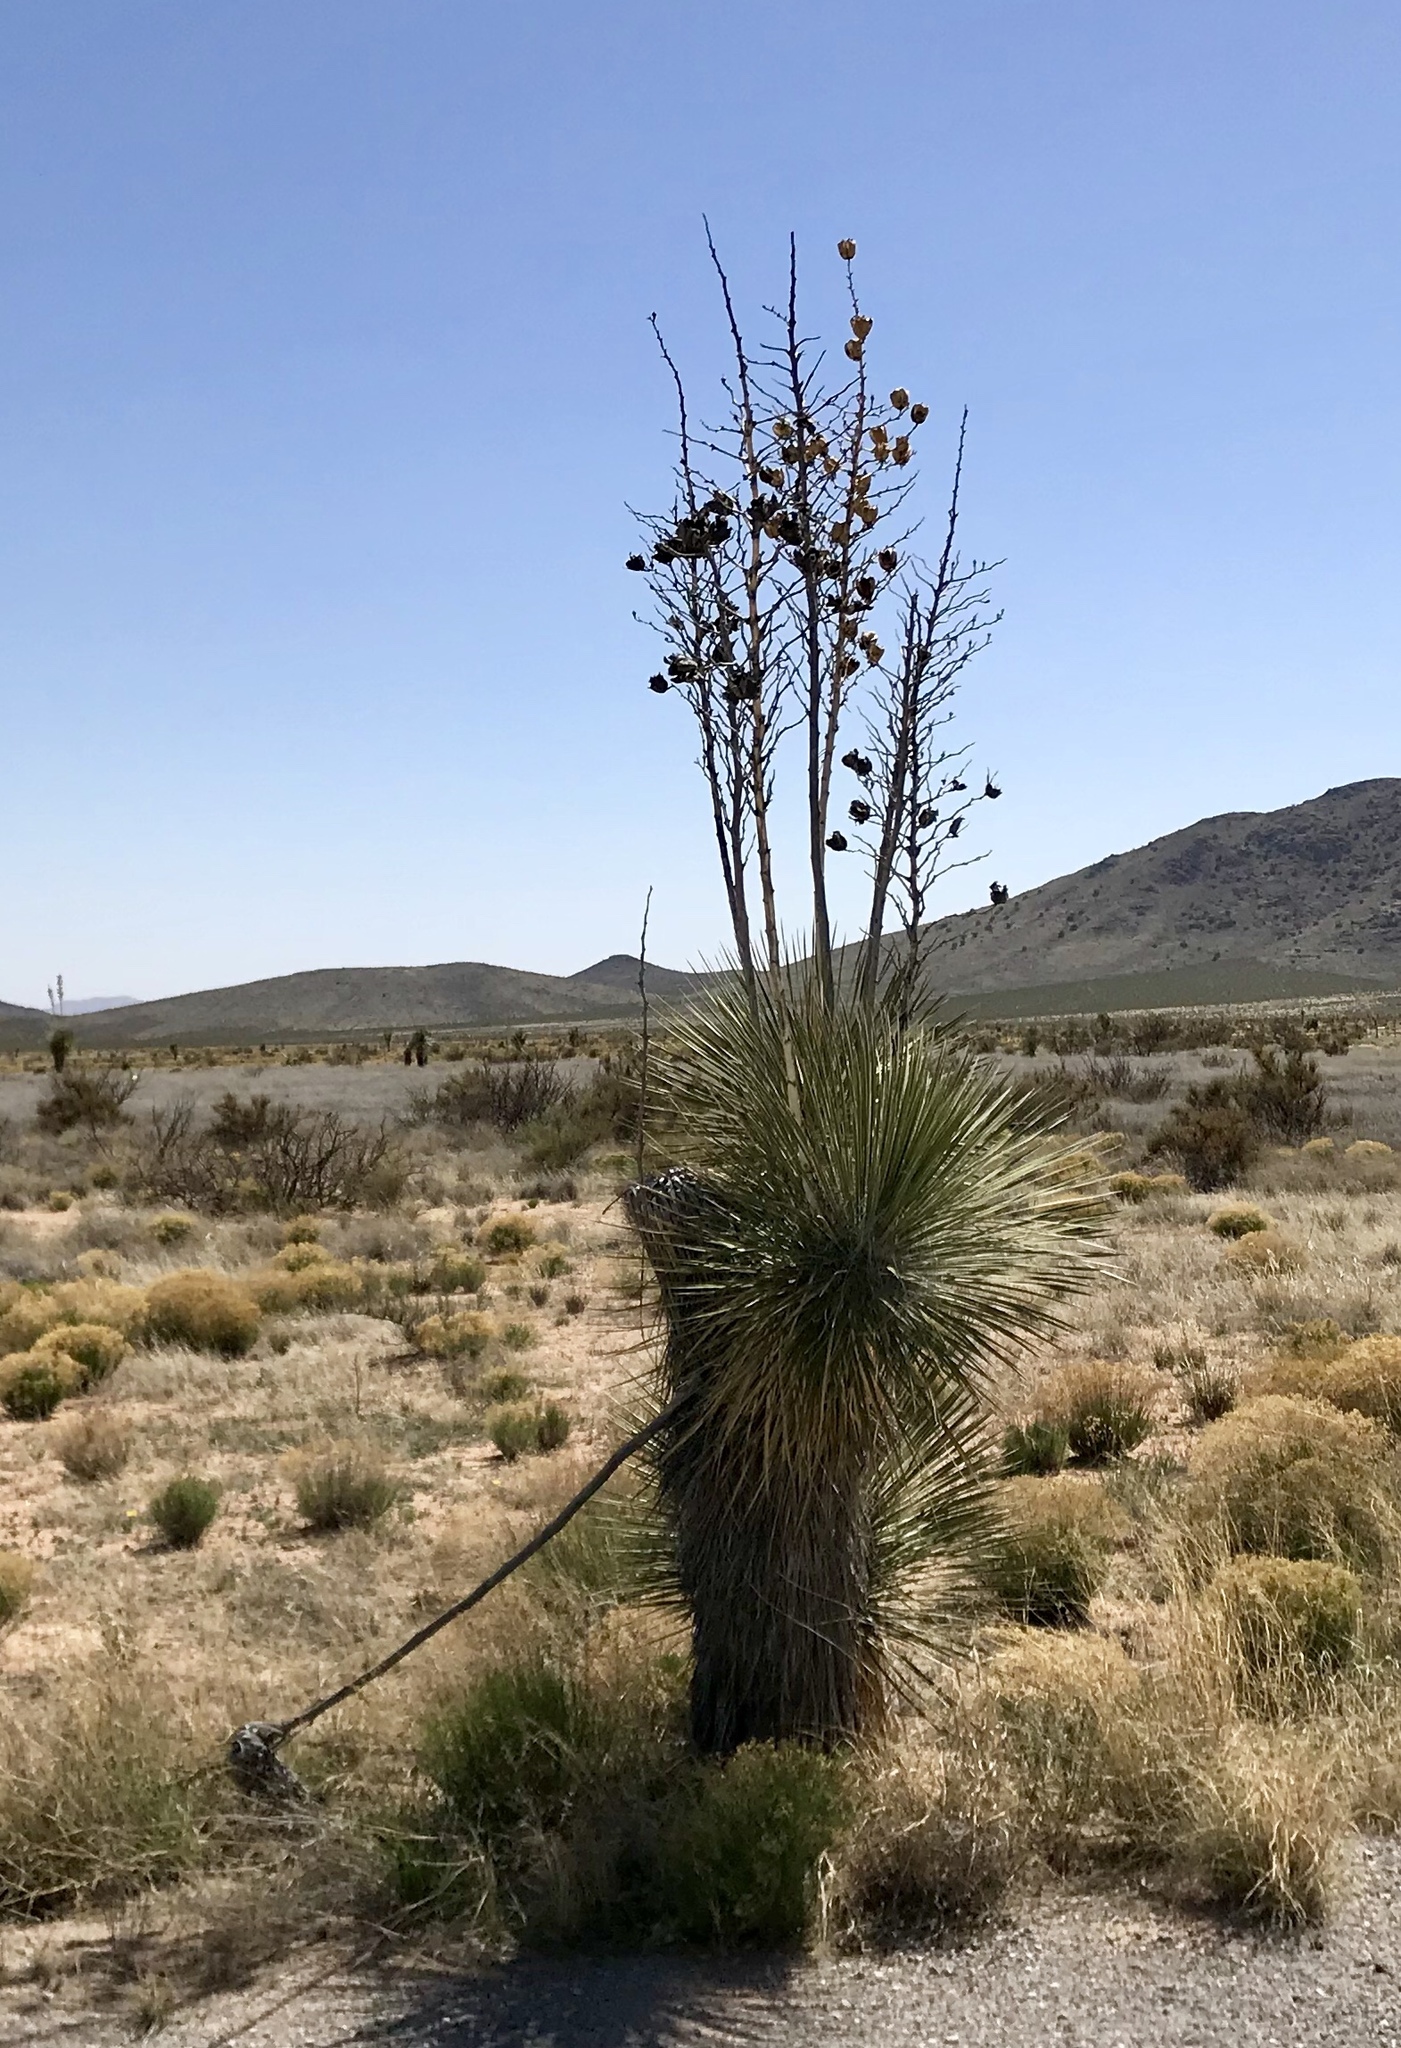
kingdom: Plantae
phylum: Tracheophyta
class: Liliopsida
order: Asparagales
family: Asparagaceae
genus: Yucca
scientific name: Yucca elata
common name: Palmella
